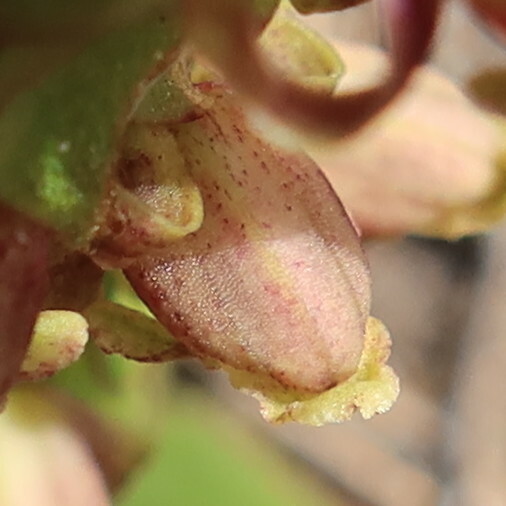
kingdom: Plantae
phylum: Tracheophyta
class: Liliopsida
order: Asparagales
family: Orchidaceae
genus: Satyrium
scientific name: Satyrium lupulinum
